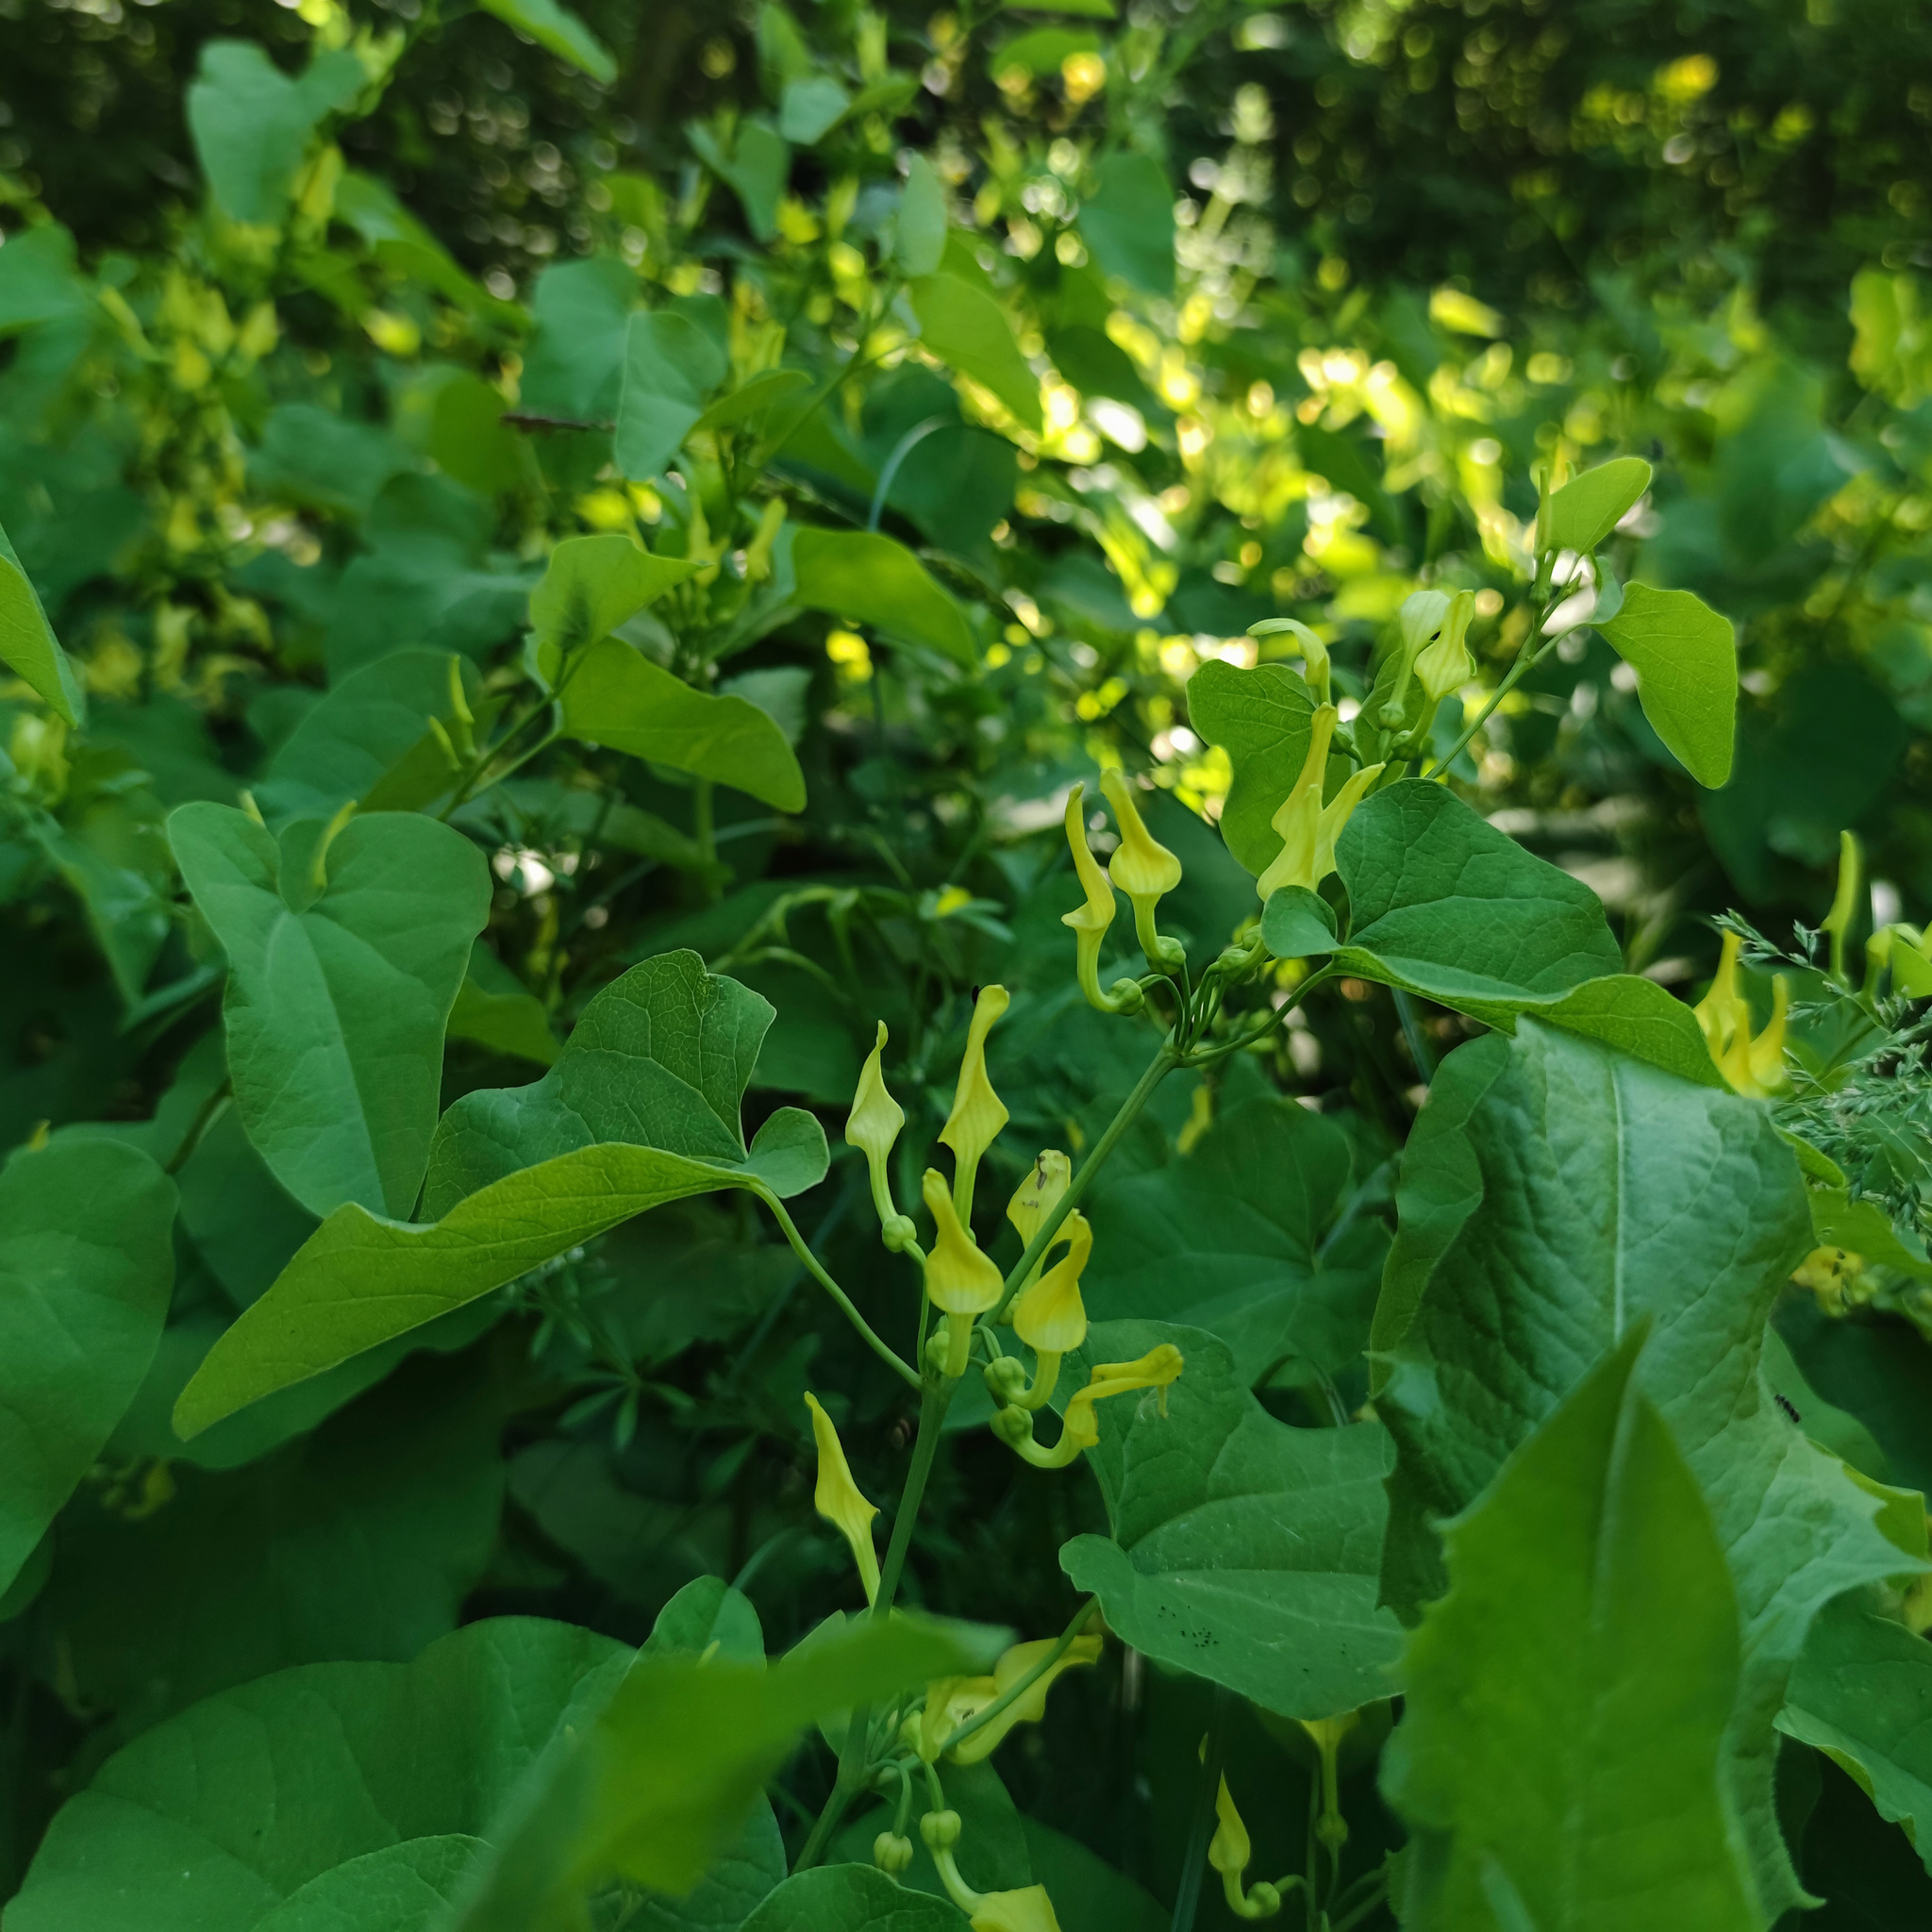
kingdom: Plantae
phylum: Tracheophyta
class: Magnoliopsida
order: Piperales
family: Aristolochiaceae
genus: Aristolochia
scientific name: Aristolochia clematitis
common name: Birthwort
